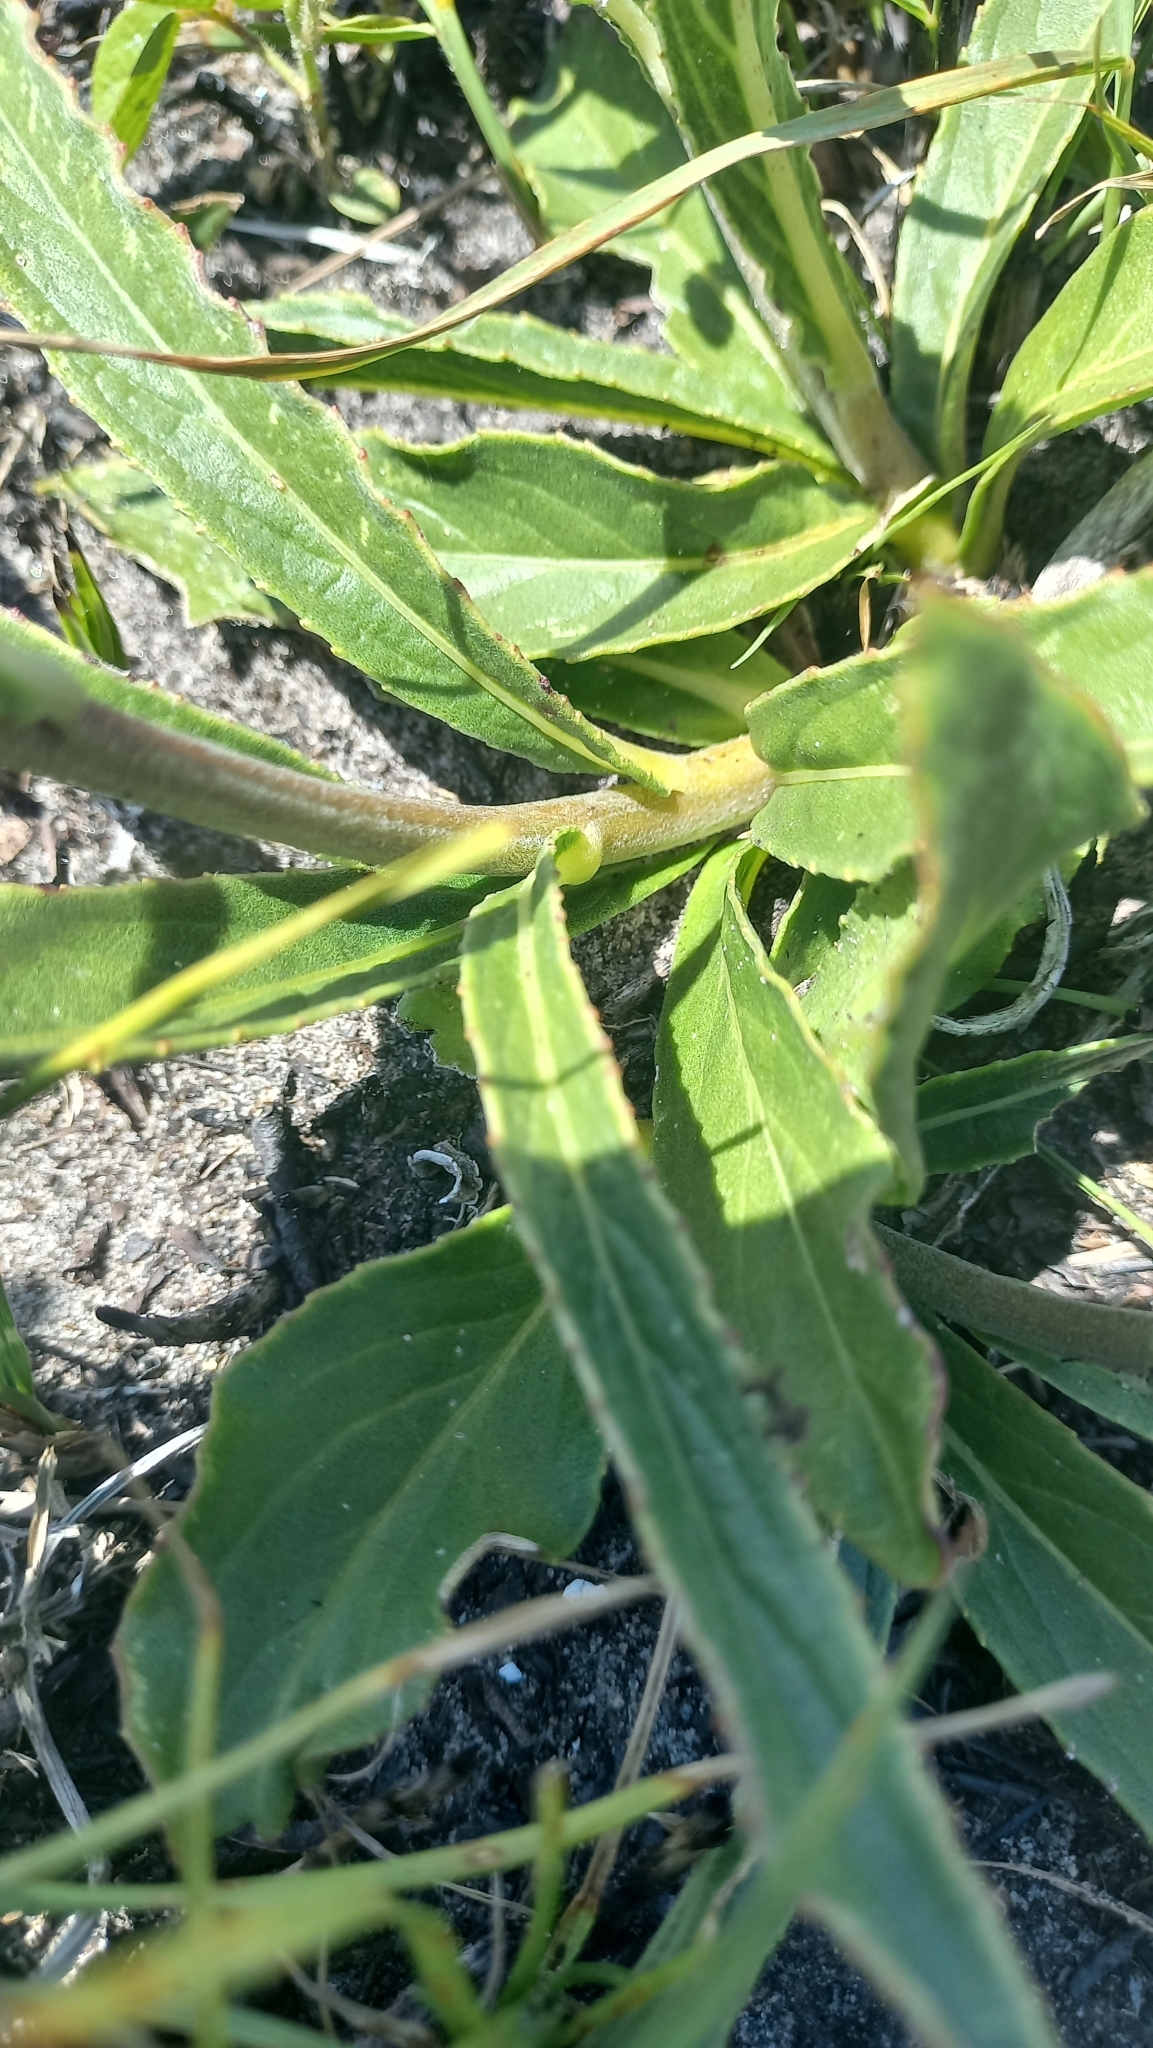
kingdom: Plantae
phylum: Tracheophyta
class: Magnoliopsida
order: Asterales
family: Asteraceae
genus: Chrysolaena
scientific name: Chrysolaena flexuosa
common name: Zig-zag vernonia
